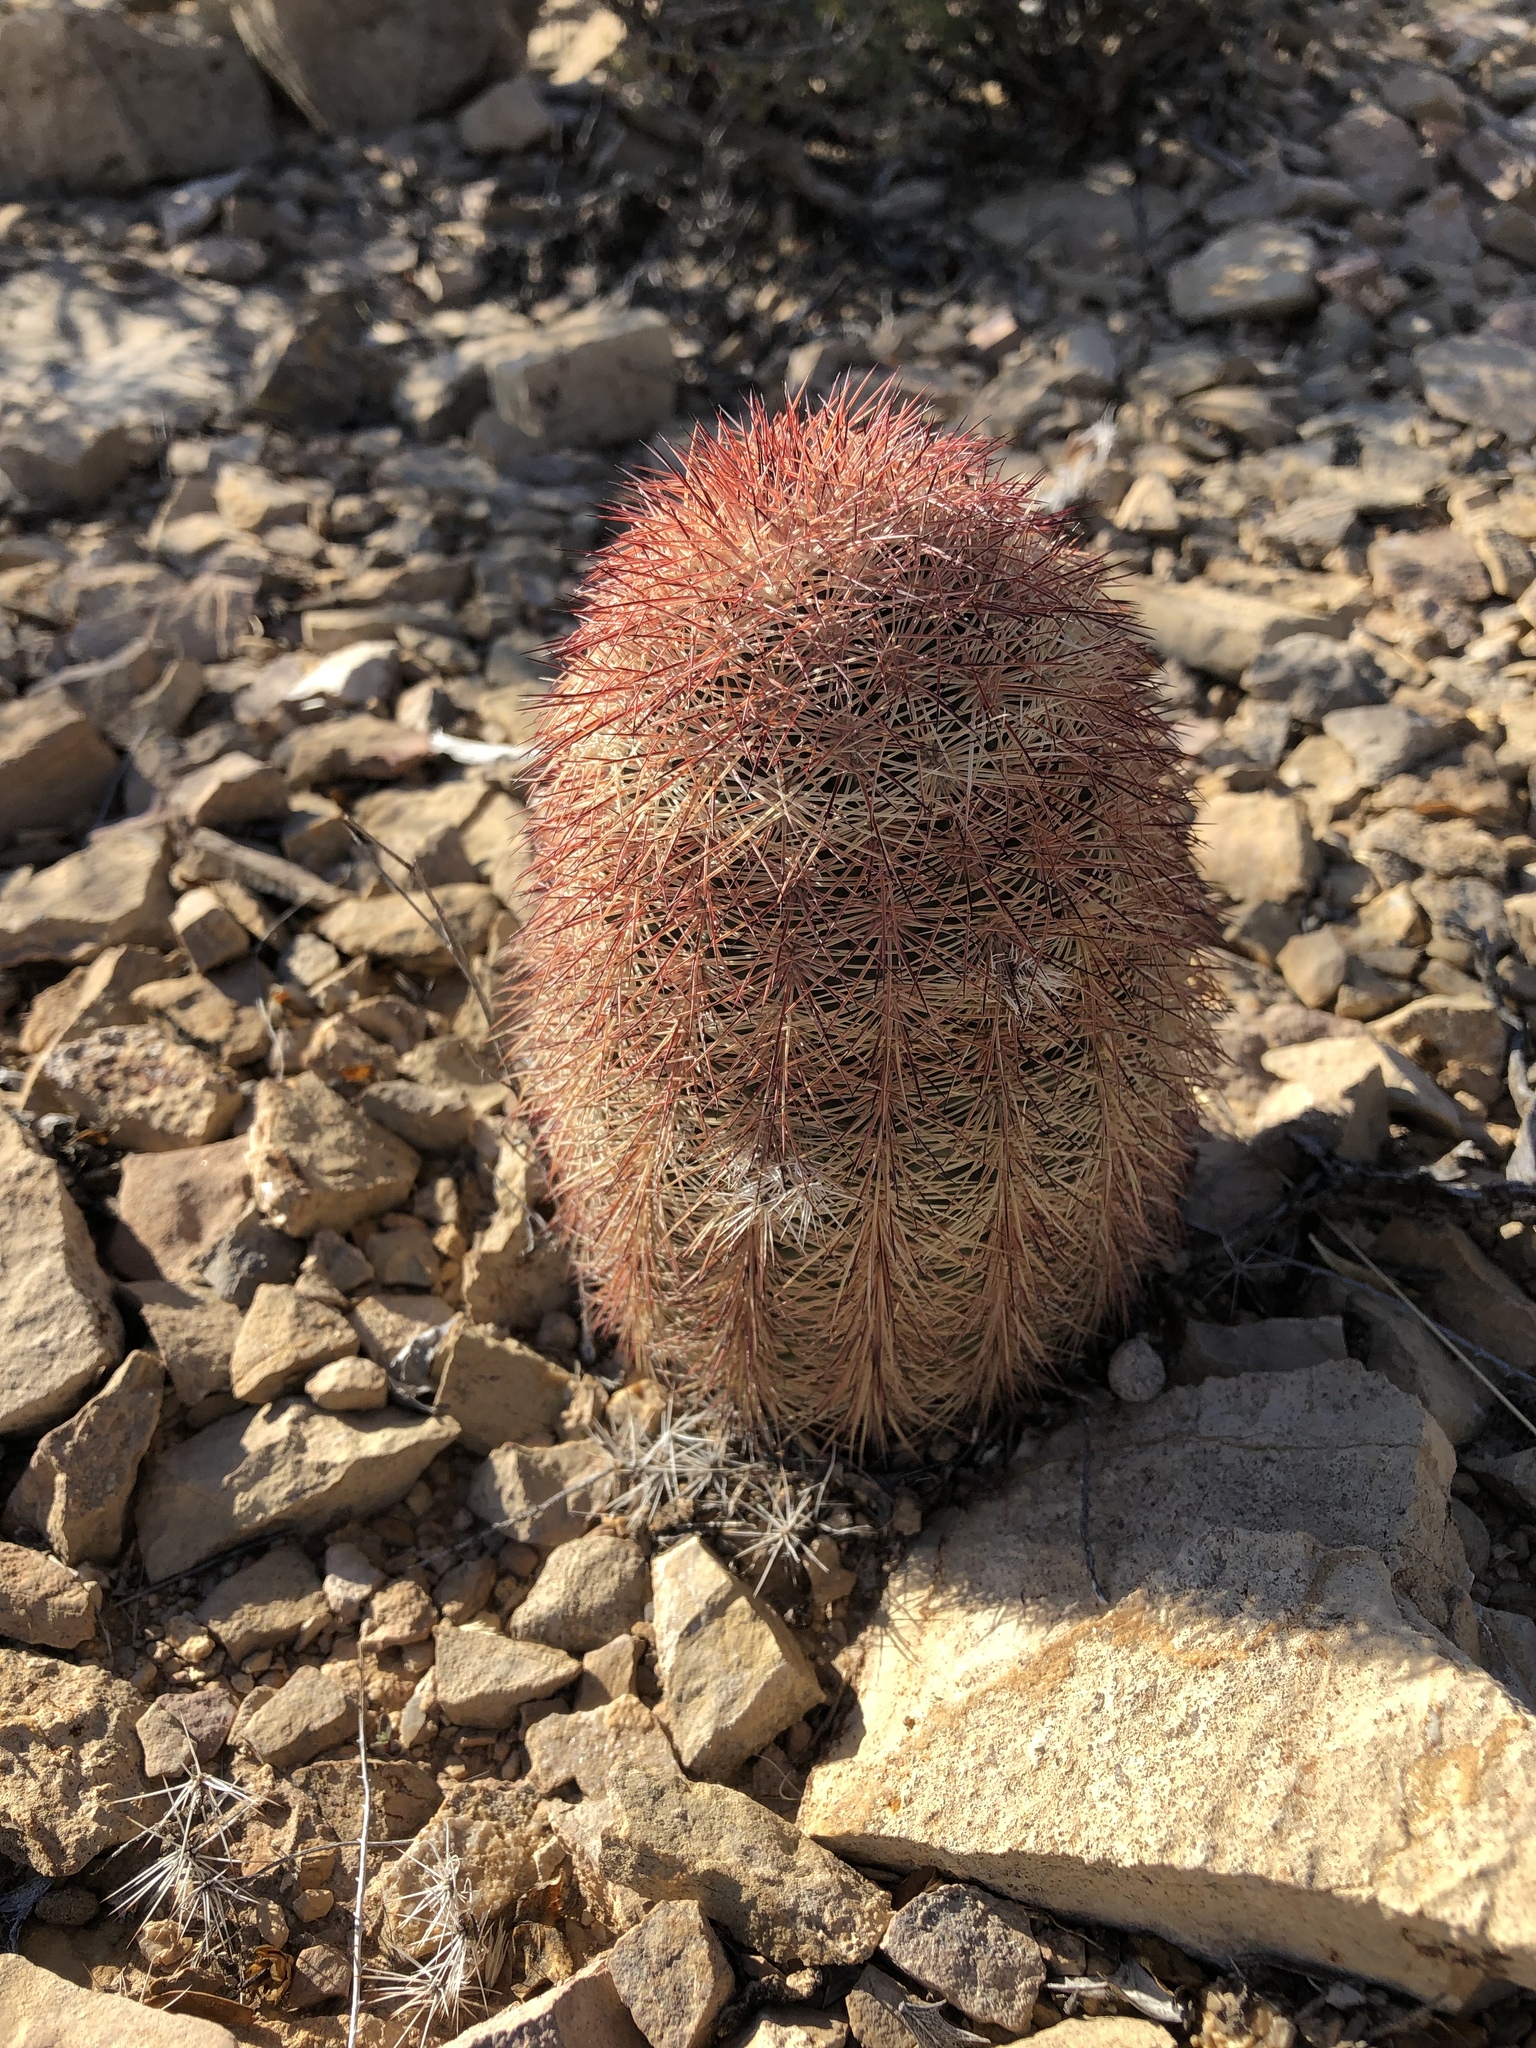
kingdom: Plantae
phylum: Tracheophyta
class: Magnoliopsida
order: Caryophyllales
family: Cactaceae
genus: Echinocereus
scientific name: Echinocereus dasyacanthus
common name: Spiny hedgehog cactus
